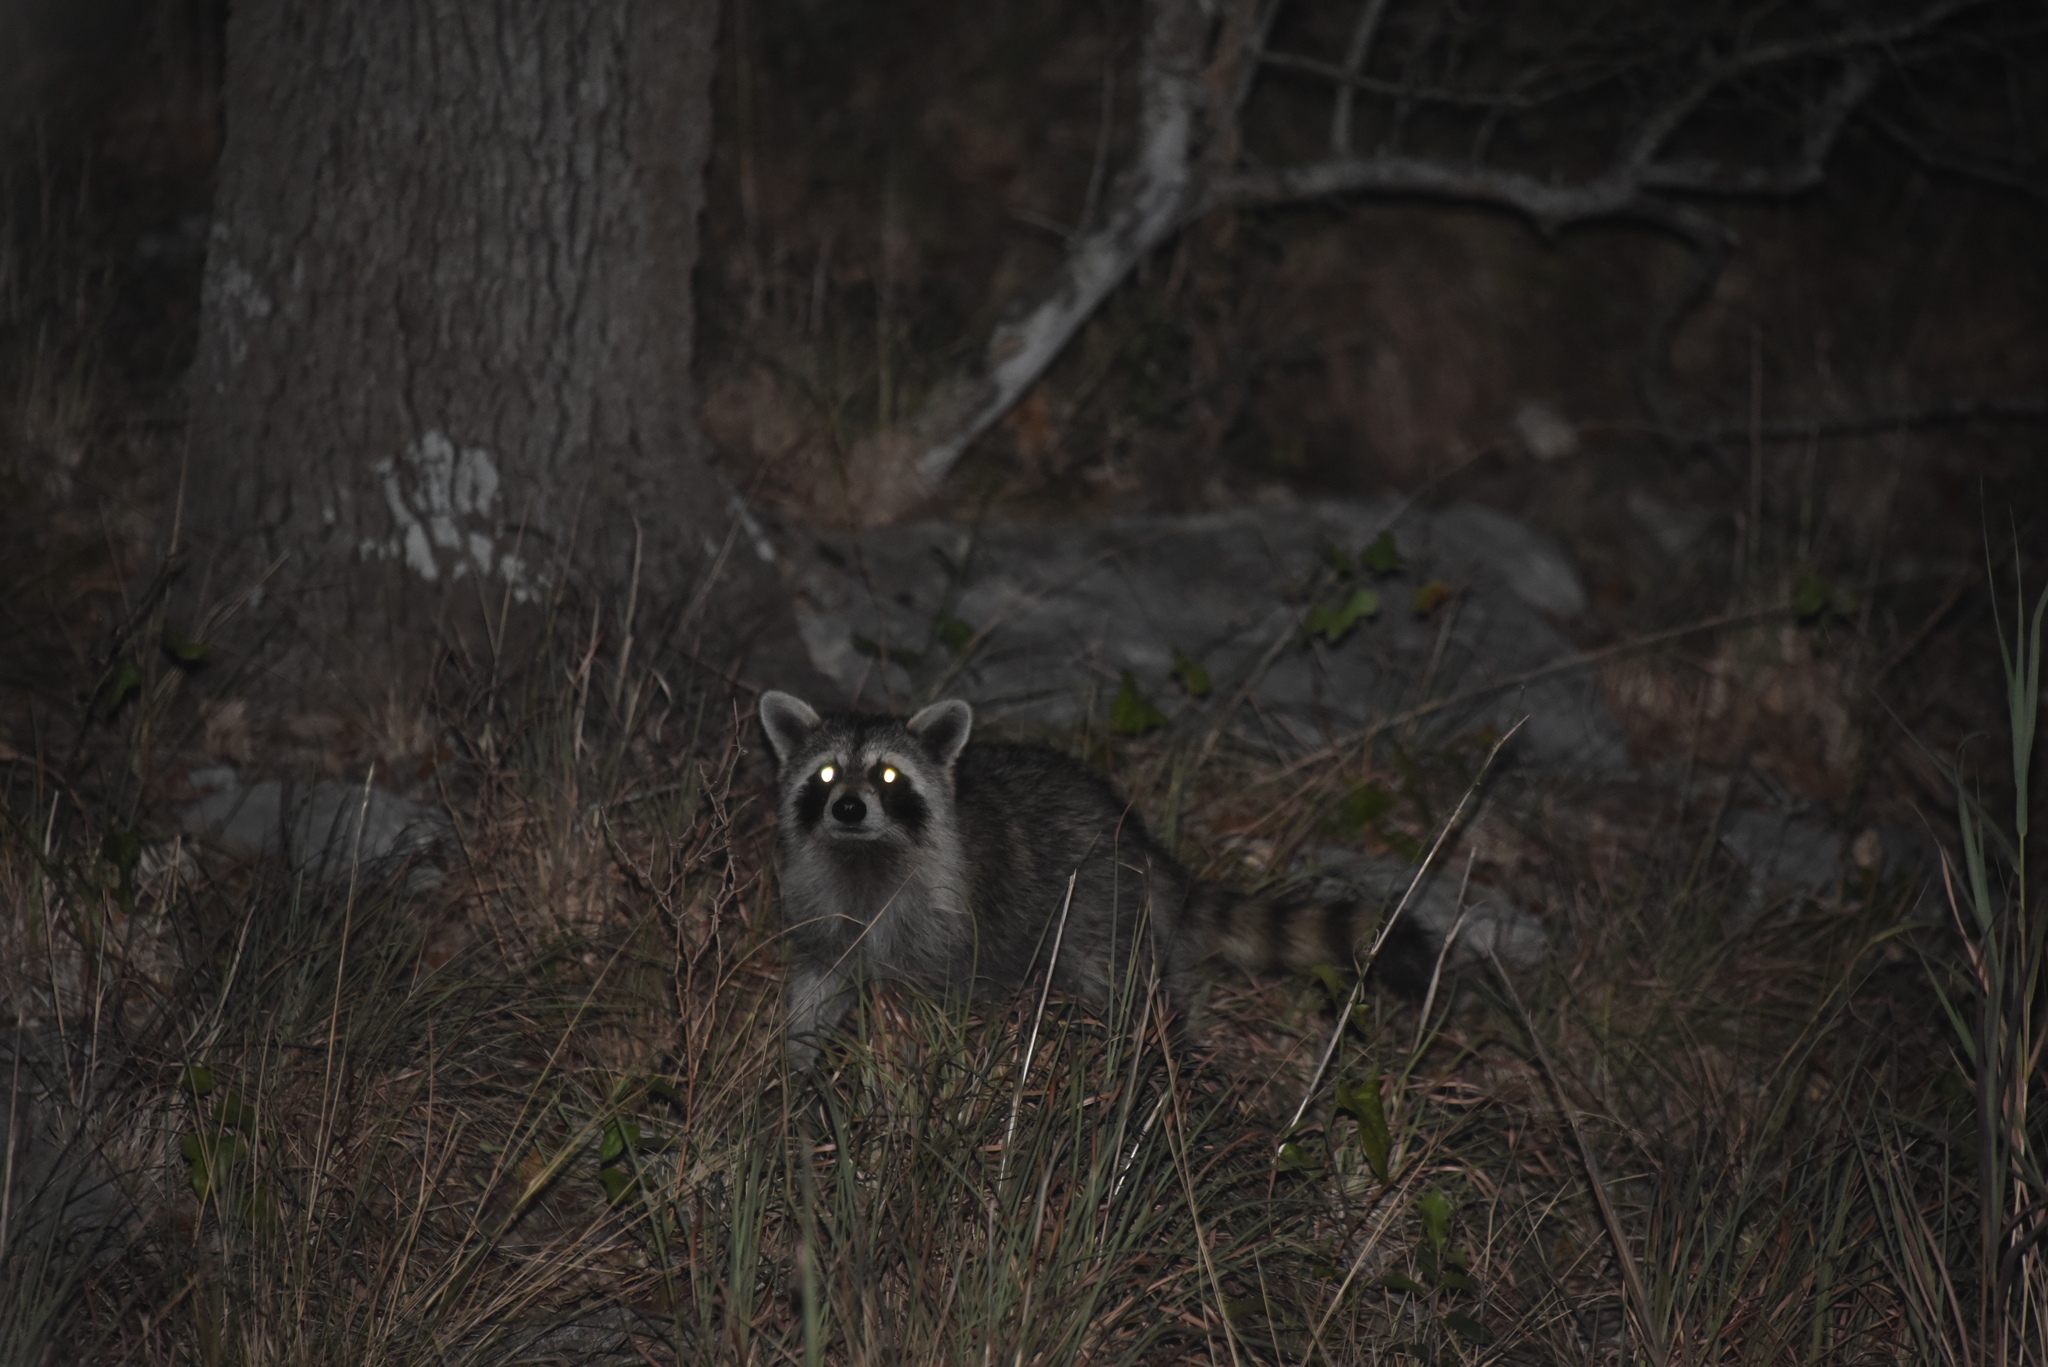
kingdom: Animalia
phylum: Chordata
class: Mammalia
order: Carnivora
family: Procyonidae
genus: Procyon
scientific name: Procyon lotor
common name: Raccoon
